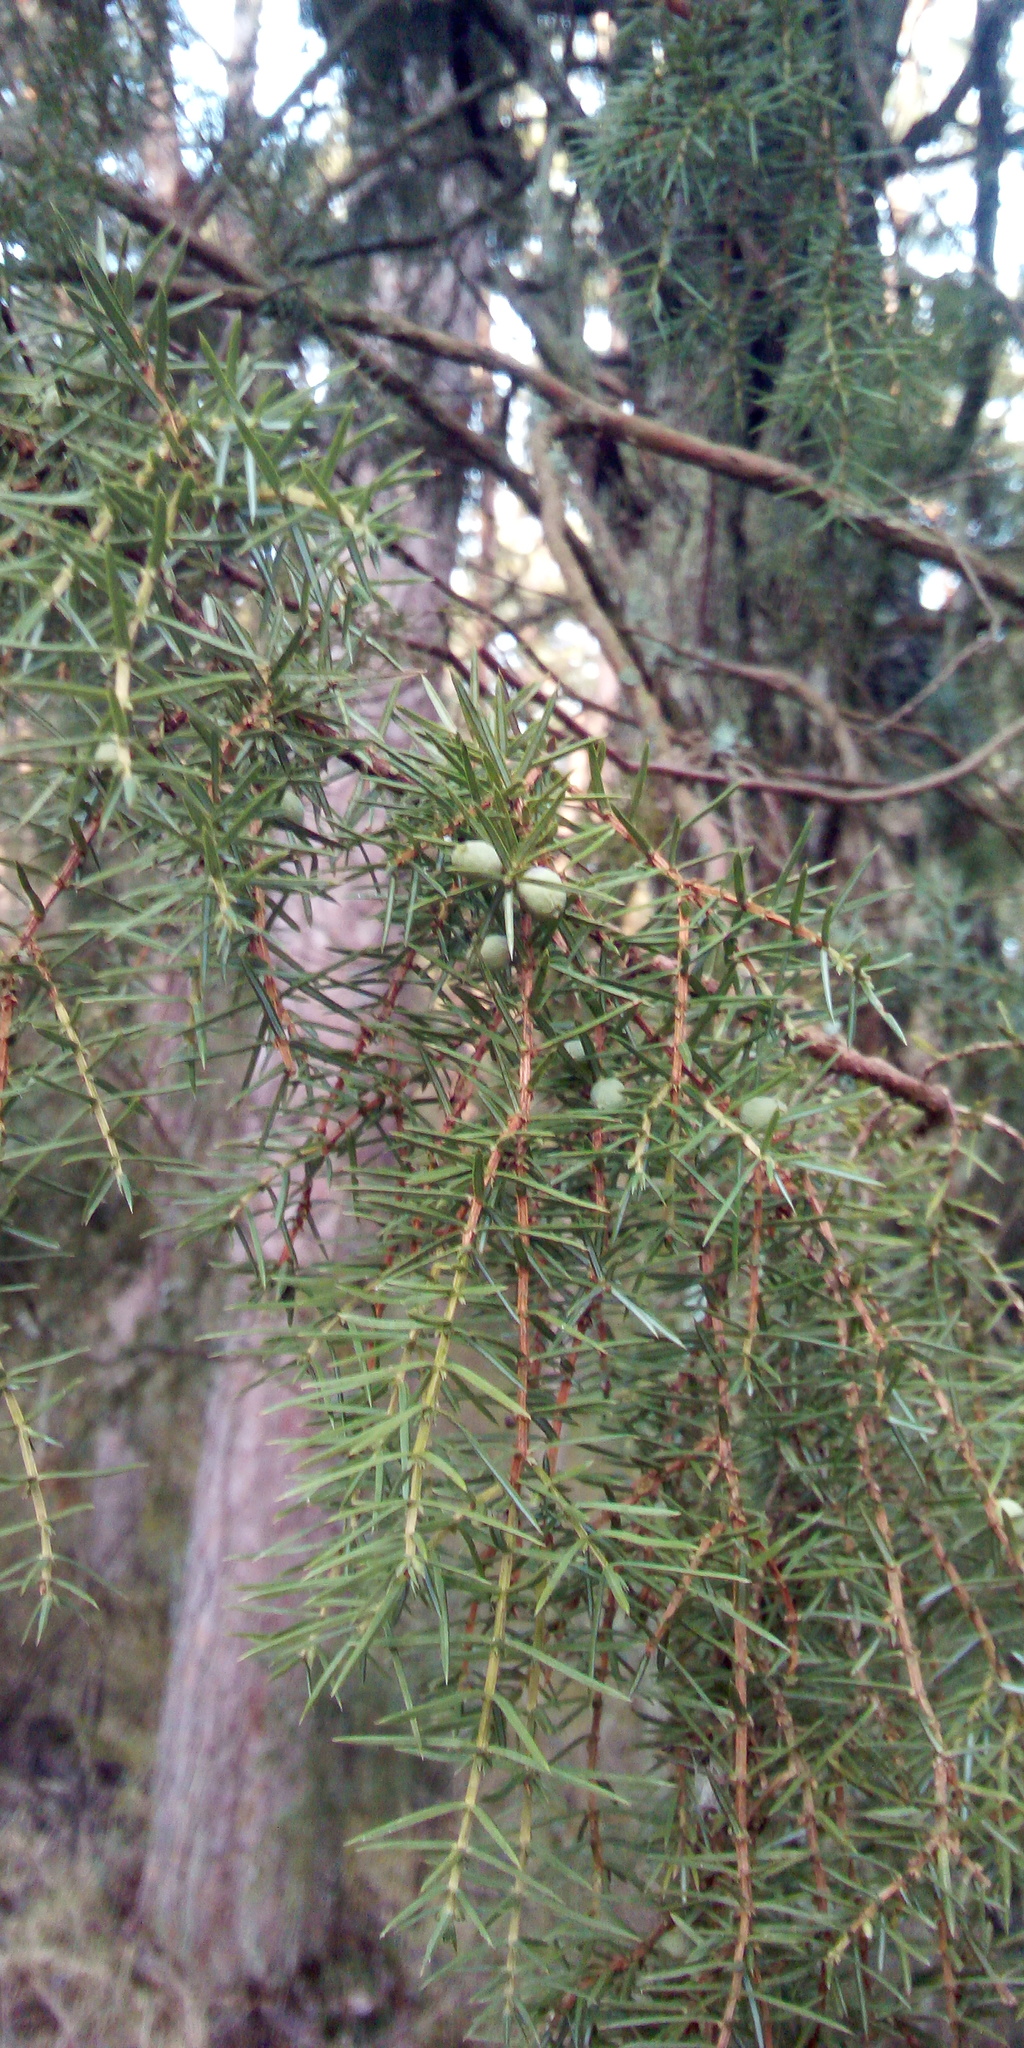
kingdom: Plantae
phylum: Tracheophyta
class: Pinopsida
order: Pinales
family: Cupressaceae
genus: Juniperus
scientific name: Juniperus communis
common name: Common juniper
